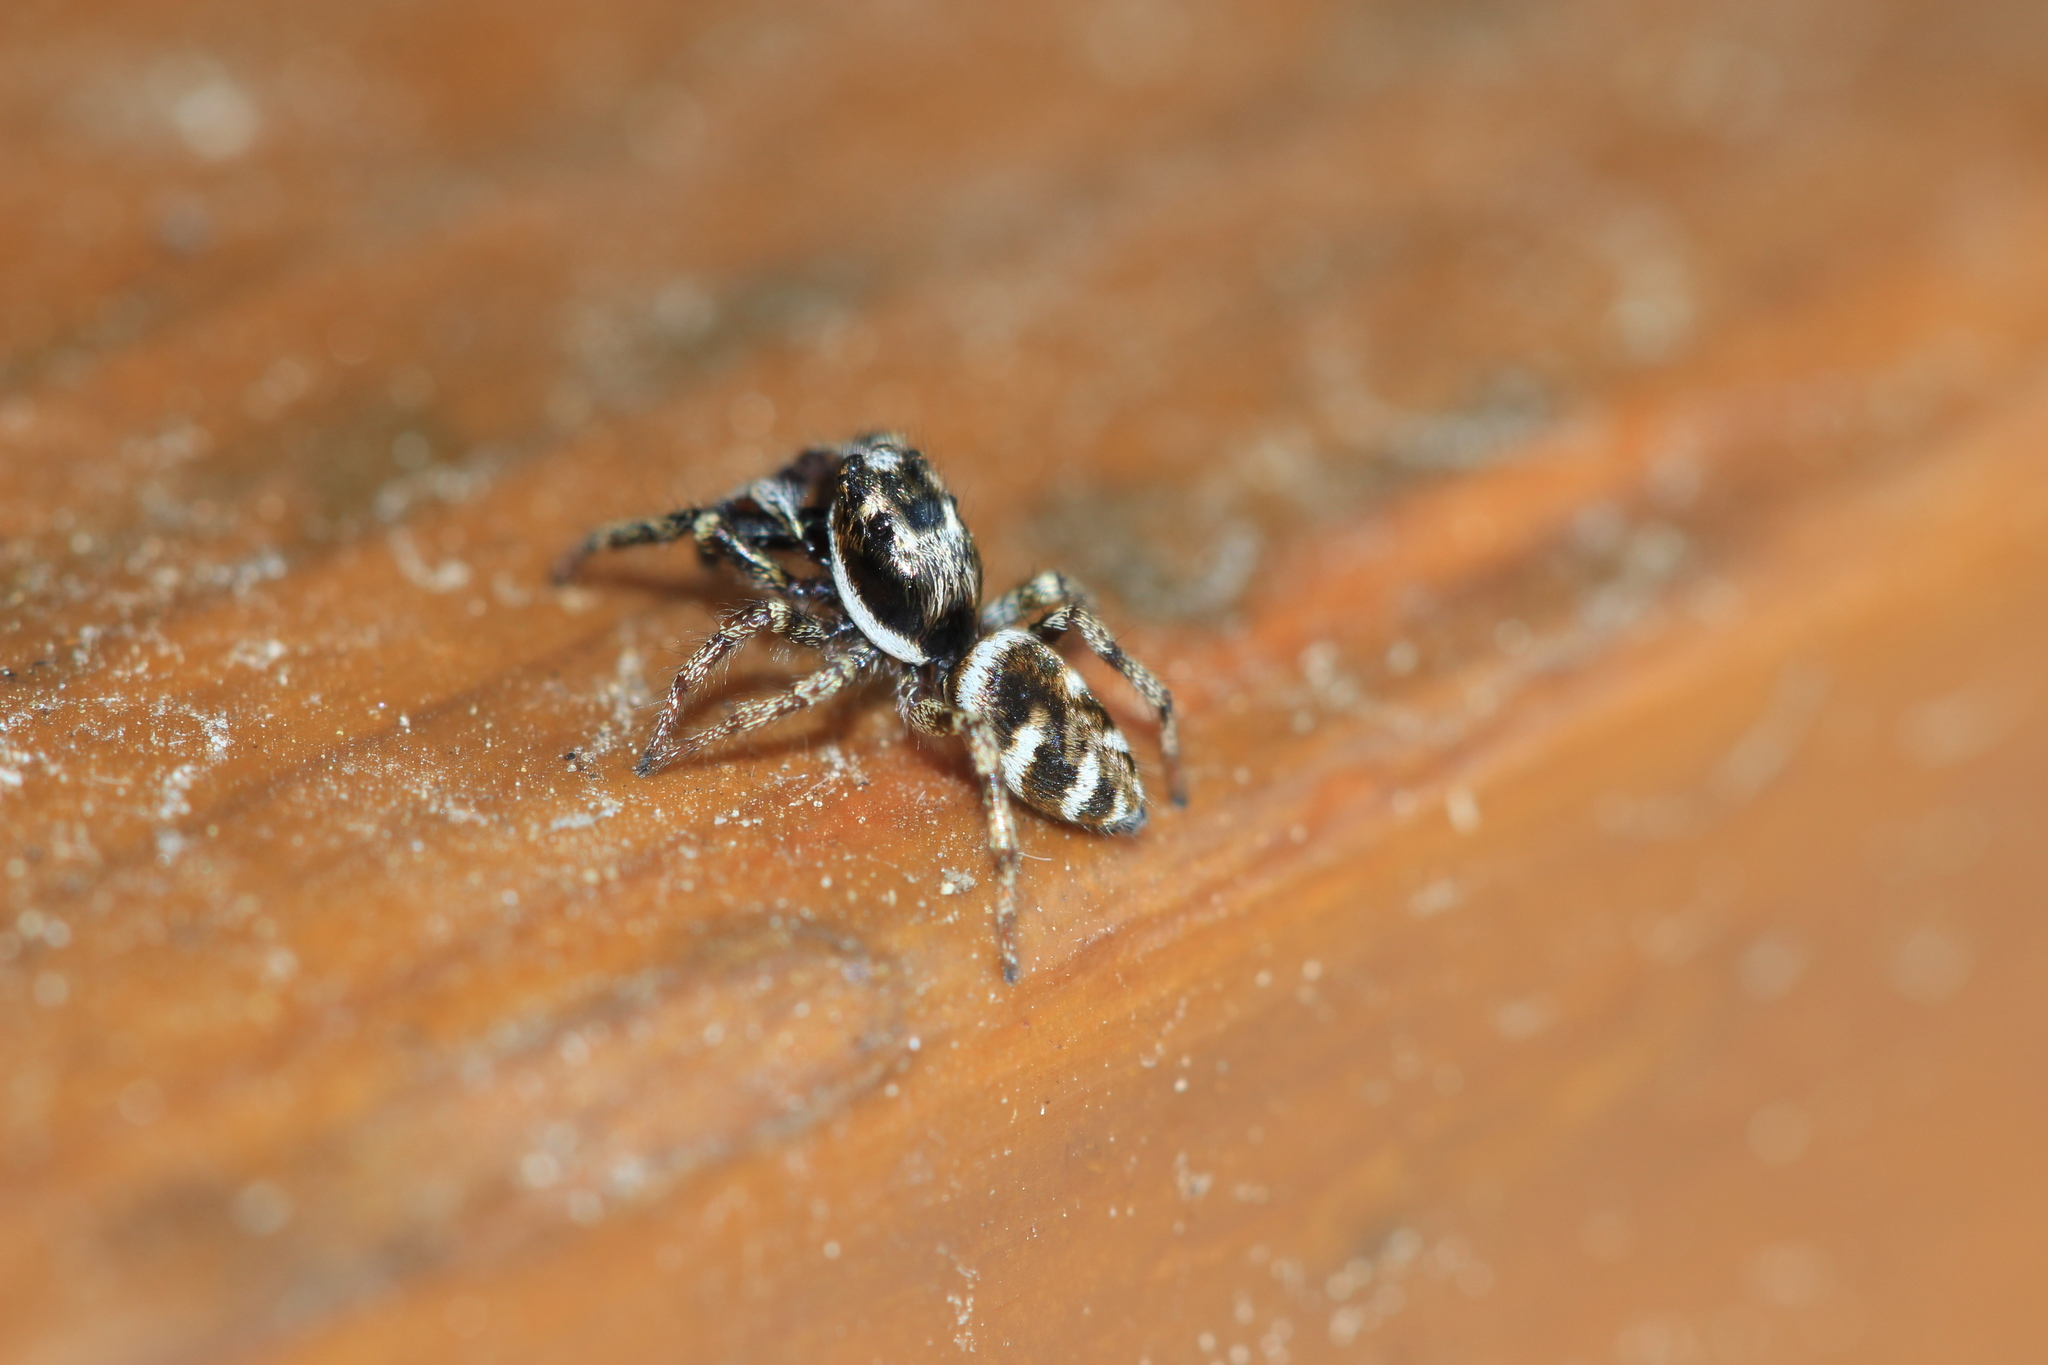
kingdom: Animalia
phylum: Arthropoda
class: Arachnida
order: Araneae
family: Salticidae
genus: Salticus
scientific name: Salticus scenicus
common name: Zebra jumper
